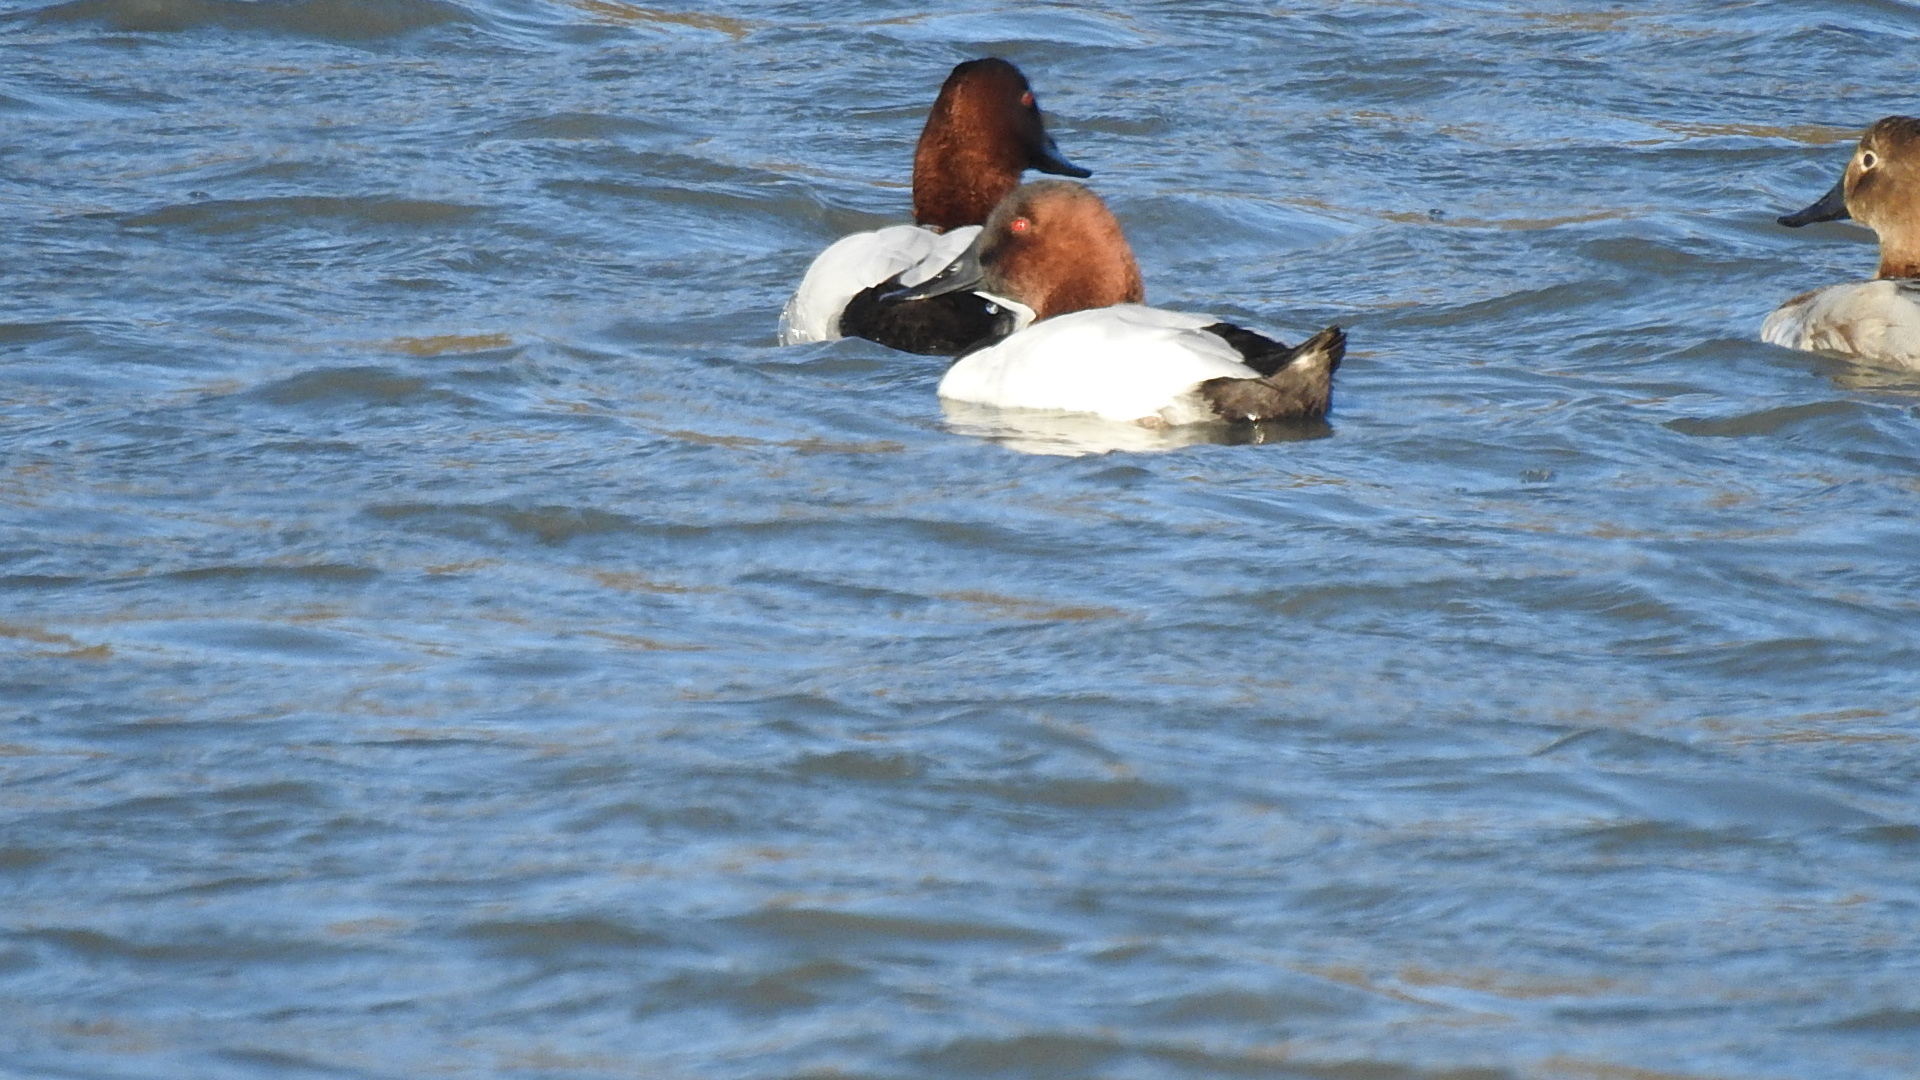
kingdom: Animalia
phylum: Chordata
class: Aves
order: Anseriformes
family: Anatidae
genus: Aythya
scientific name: Aythya valisineria
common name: Canvasback
